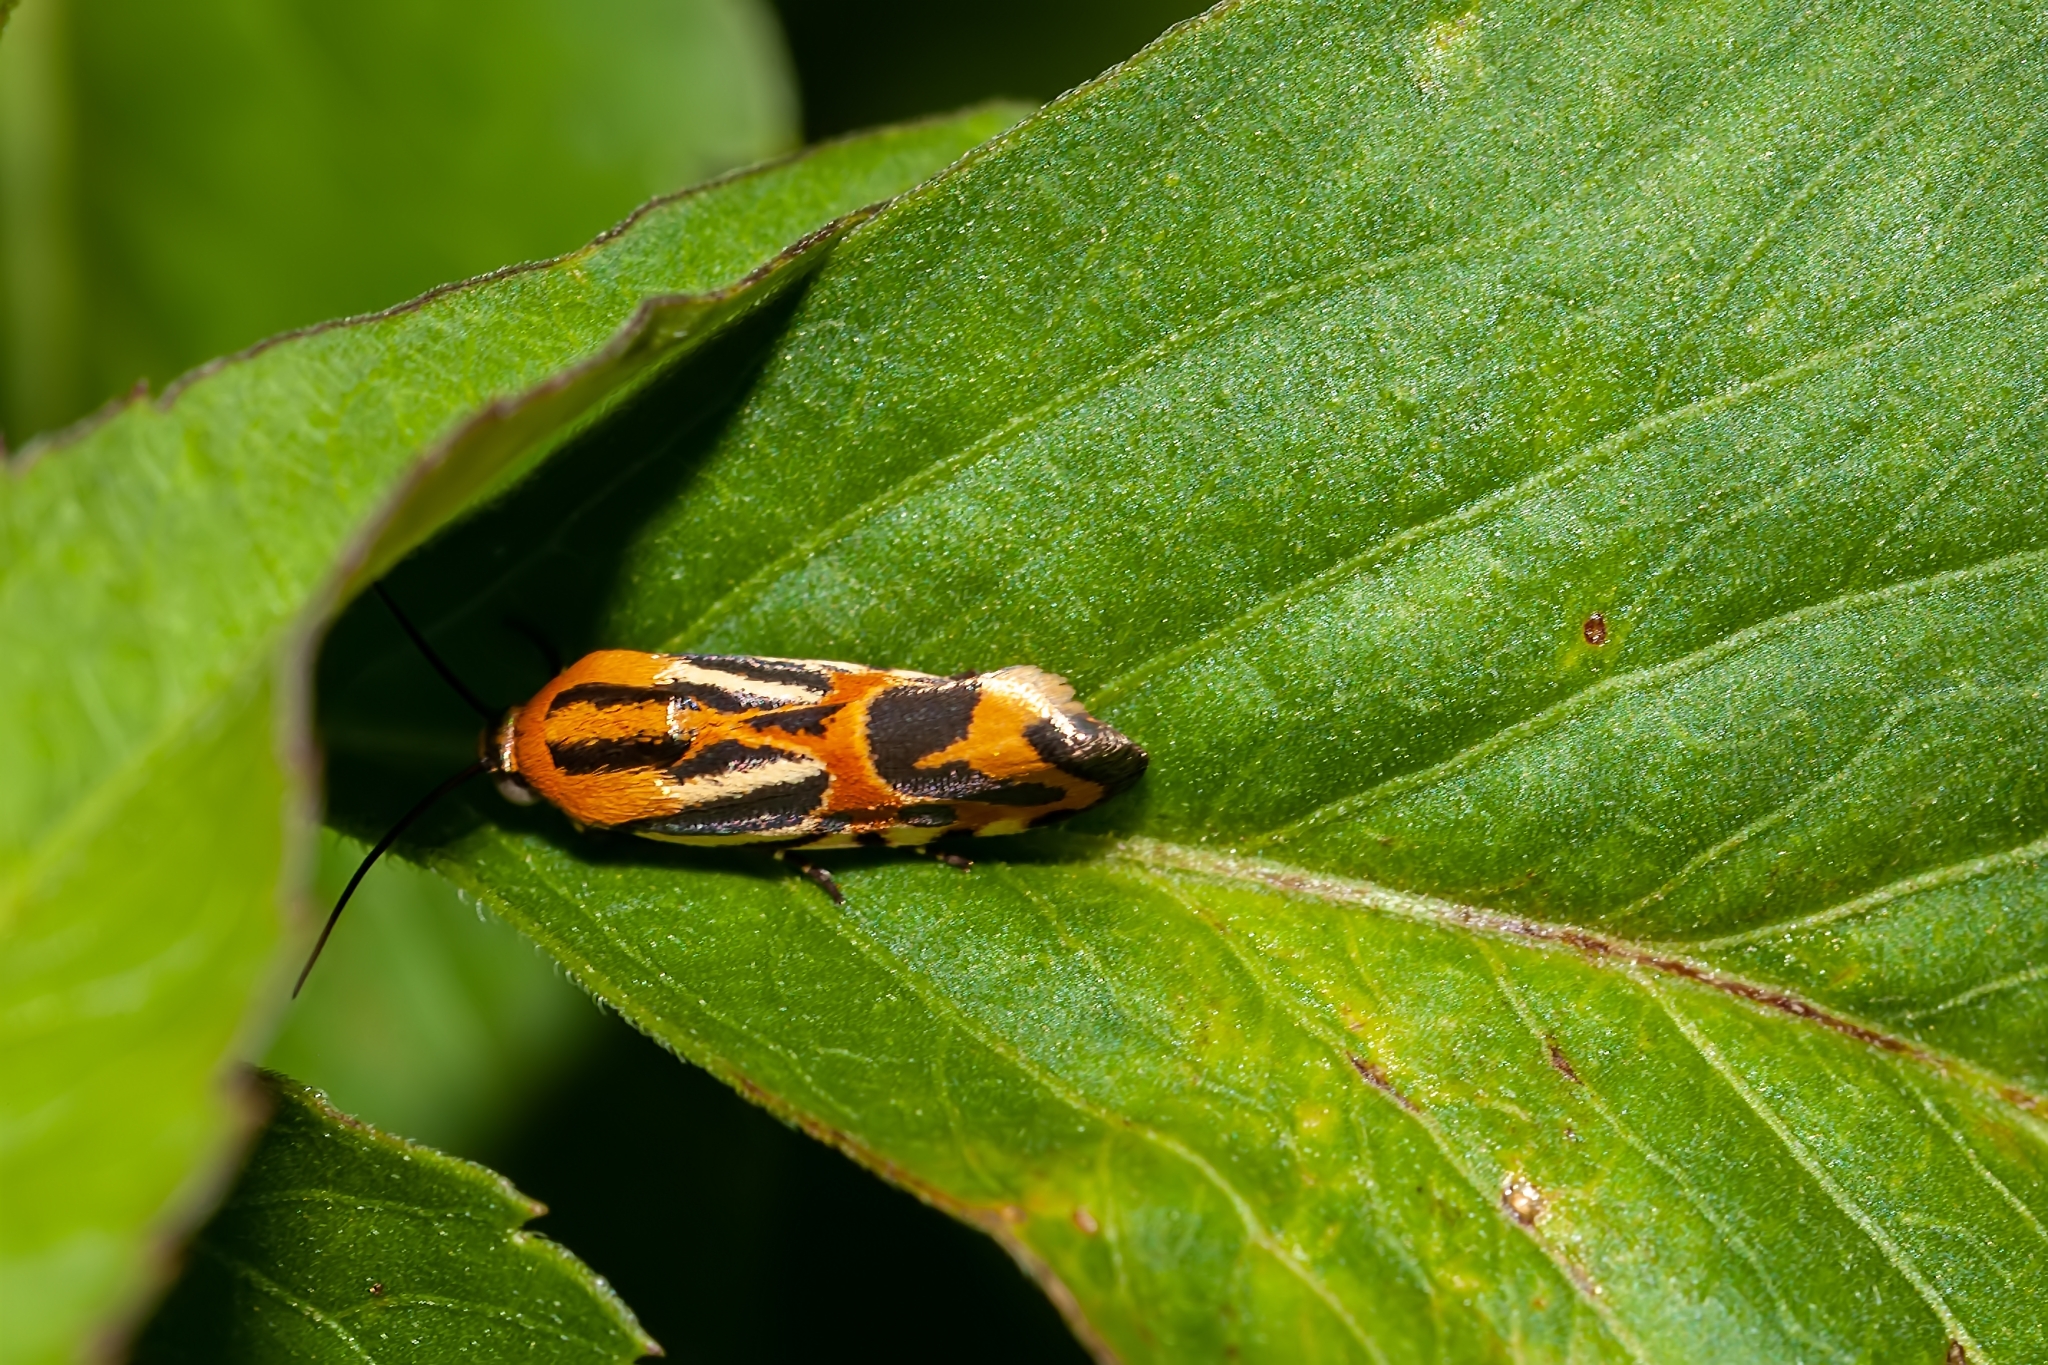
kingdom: Animalia
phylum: Arthropoda
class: Insecta
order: Lepidoptera
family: Noctuidae
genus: Acontia
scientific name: Acontia onagrus
